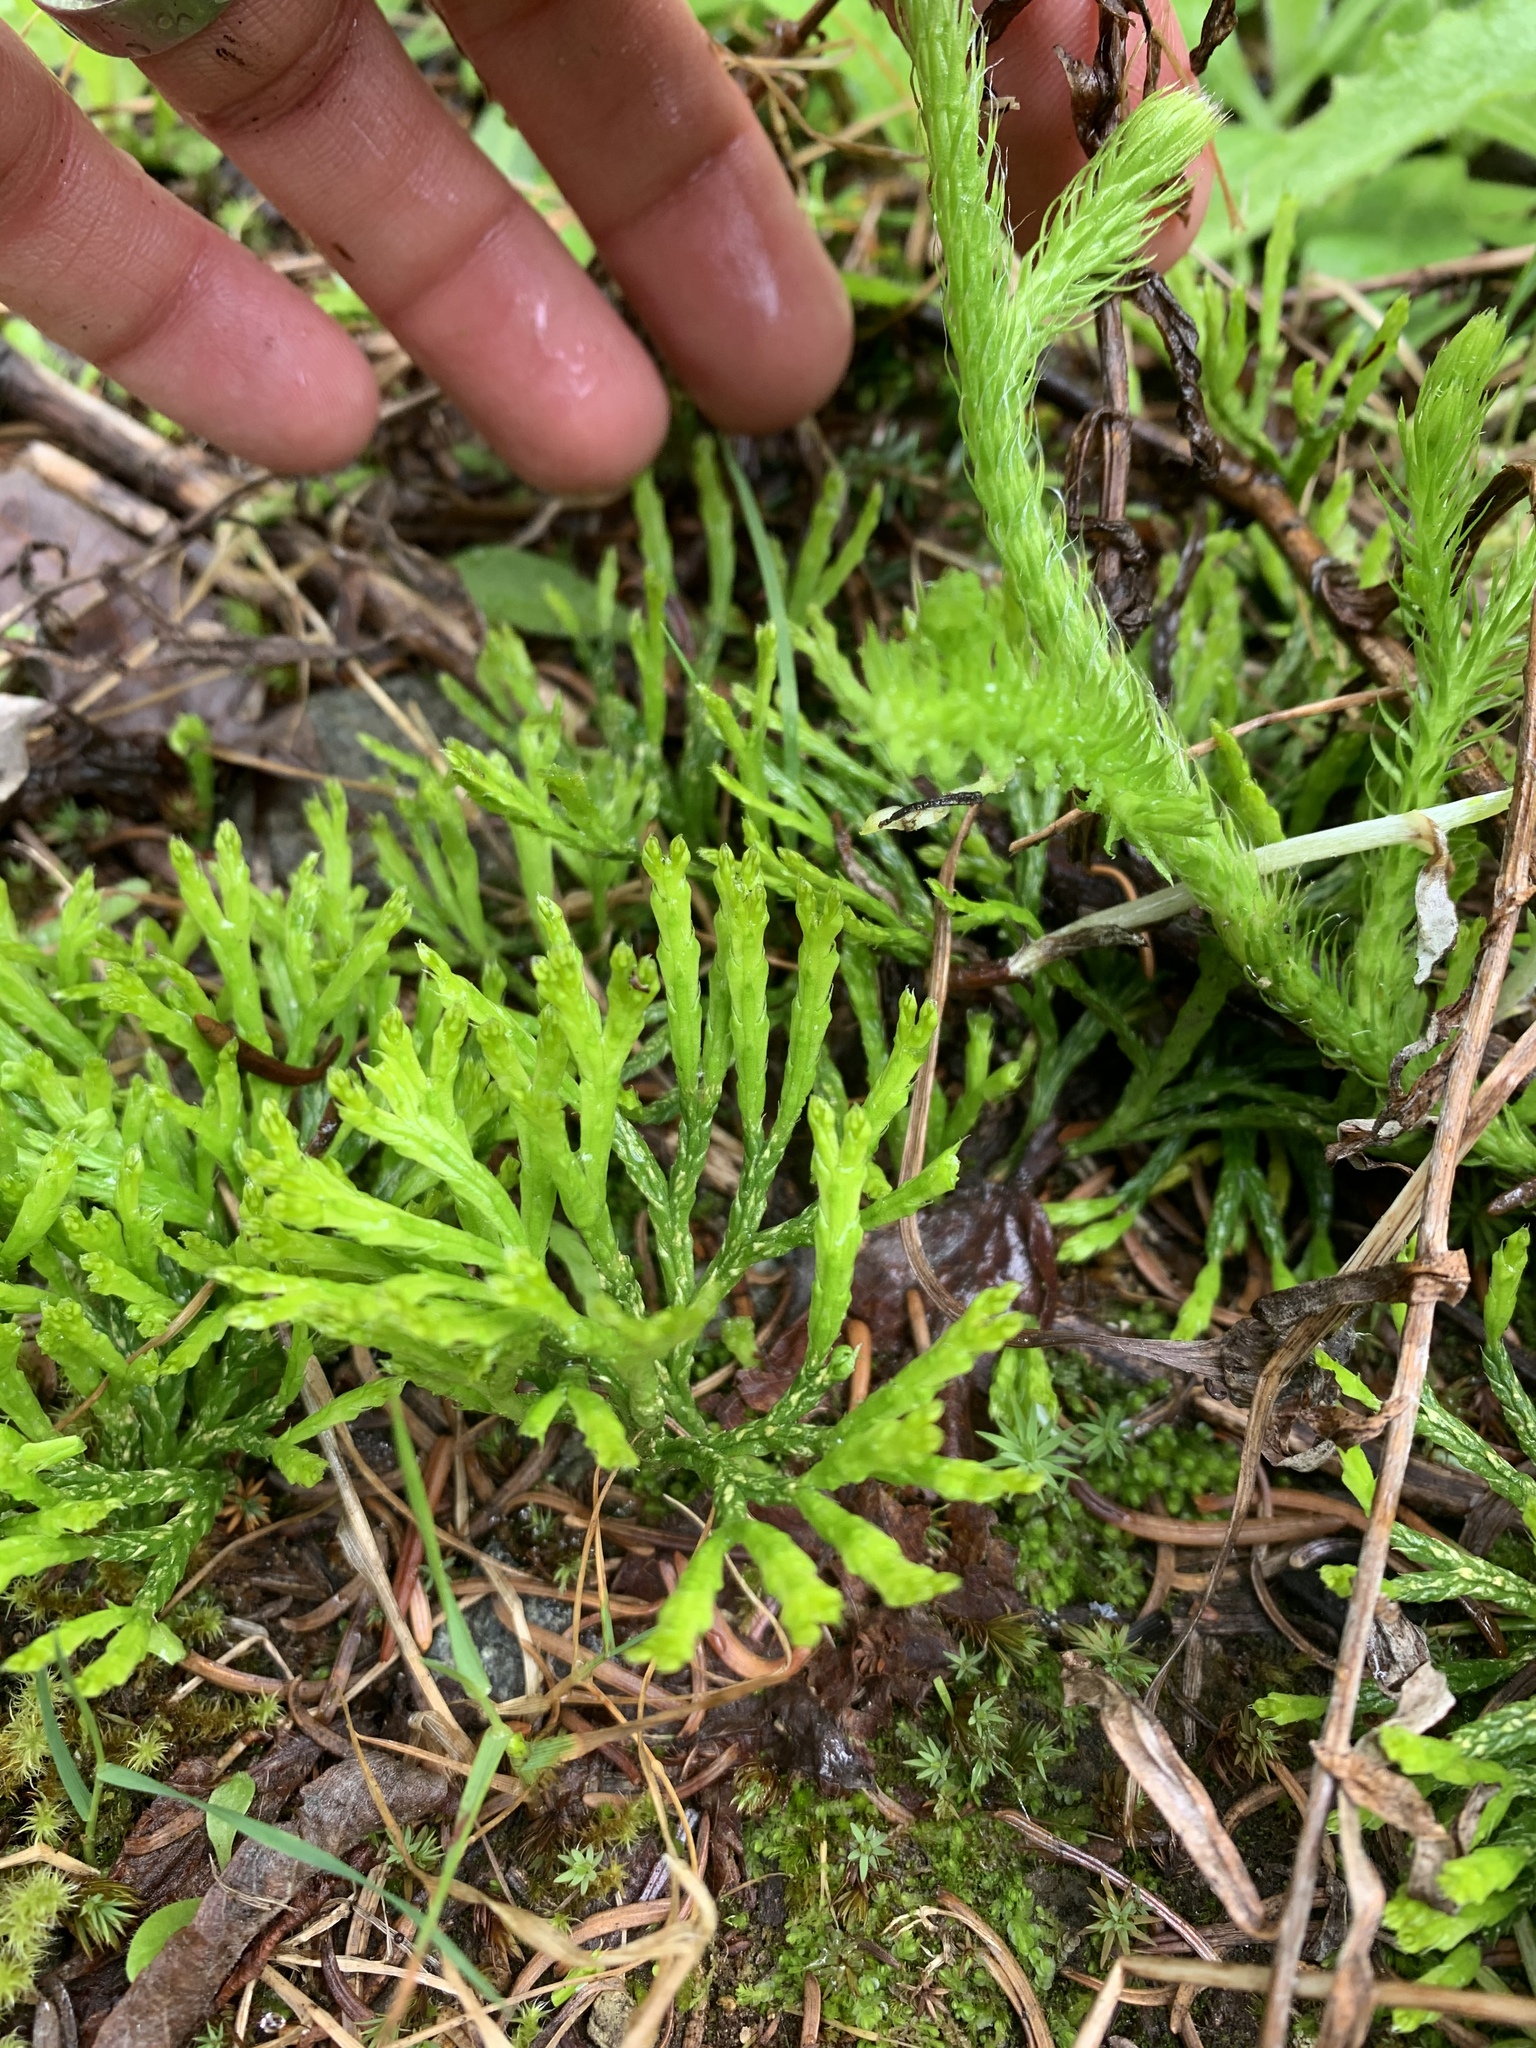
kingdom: Plantae
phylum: Tracheophyta
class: Lycopodiopsida
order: Lycopodiales
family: Lycopodiaceae
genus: Diphasiastrum
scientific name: Diphasiastrum complanatum
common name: Northern running-pine
